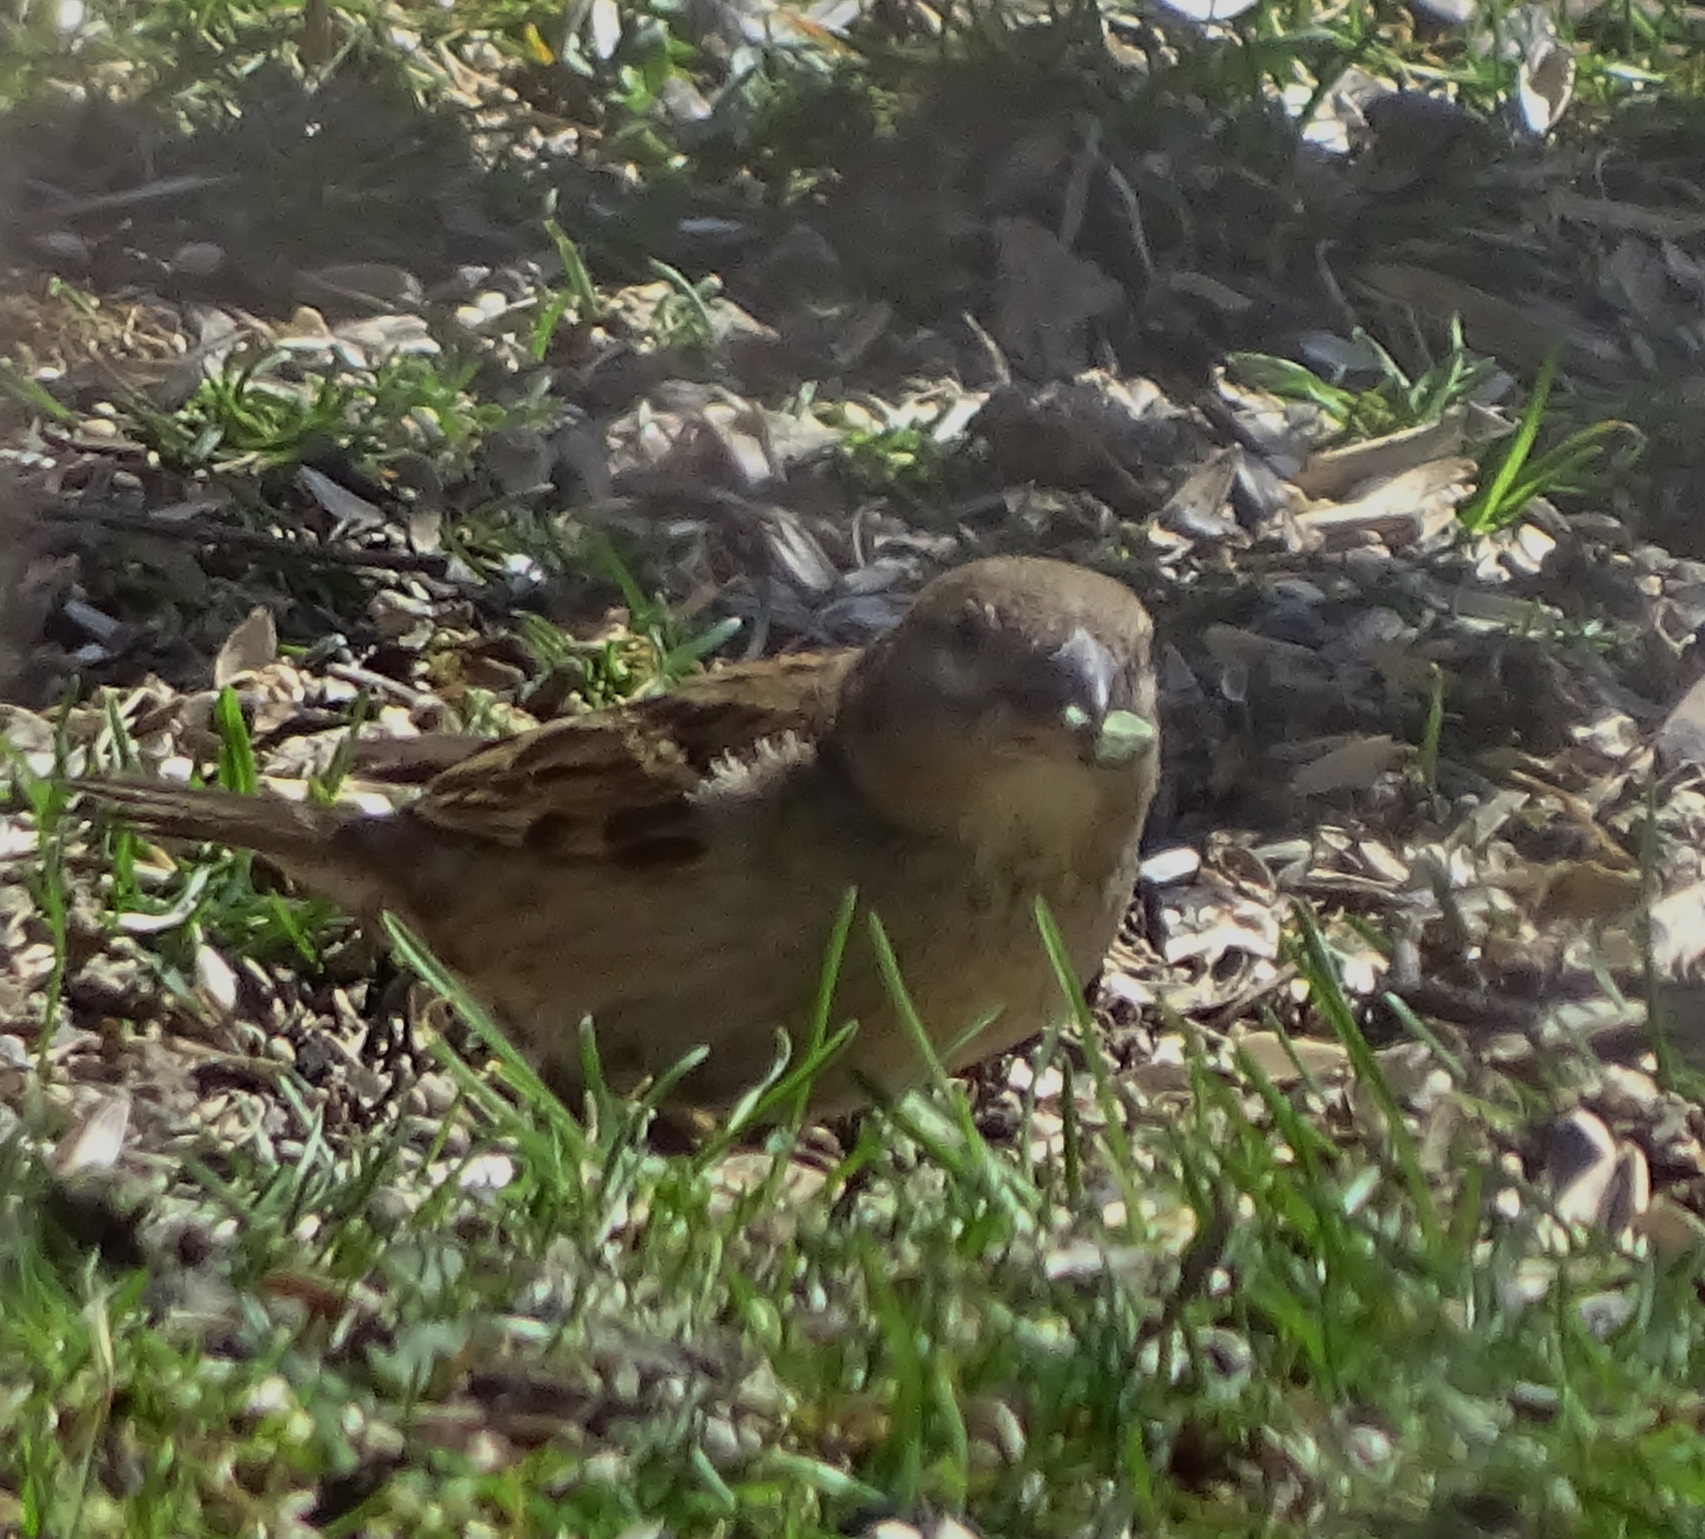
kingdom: Animalia
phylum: Chordata
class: Aves
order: Passeriformes
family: Passeridae
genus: Passer
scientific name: Passer domesticus
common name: House sparrow
